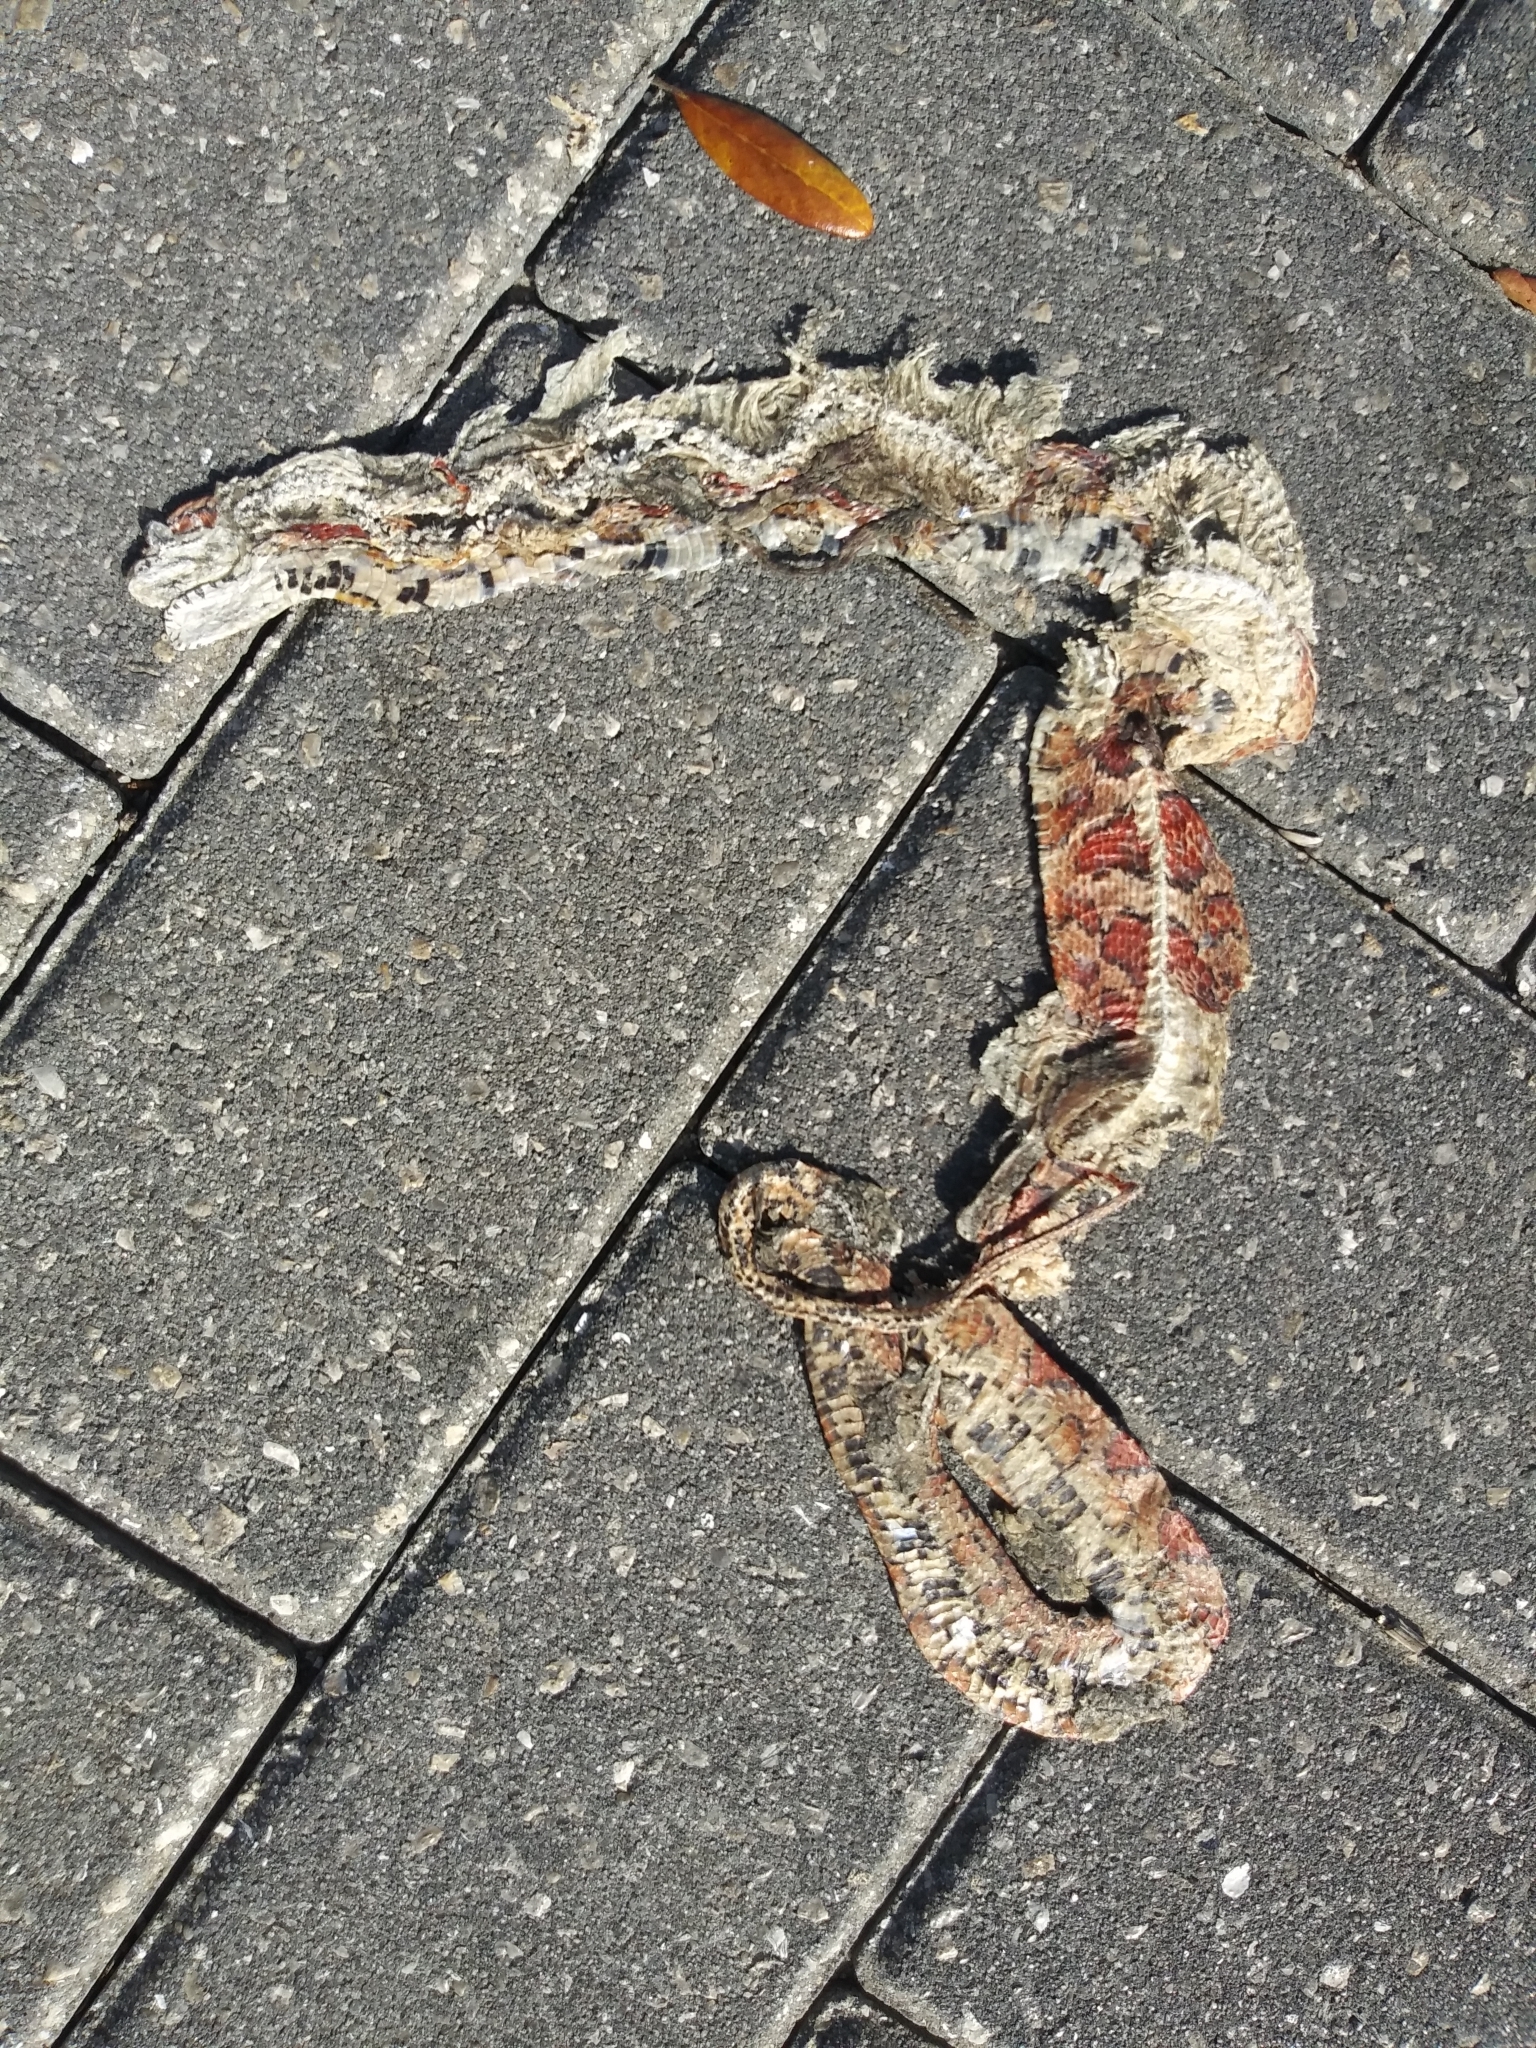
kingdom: Animalia
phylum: Chordata
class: Squamata
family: Colubridae
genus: Pantherophis
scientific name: Pantherophis guttatus
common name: Red cornsnake
